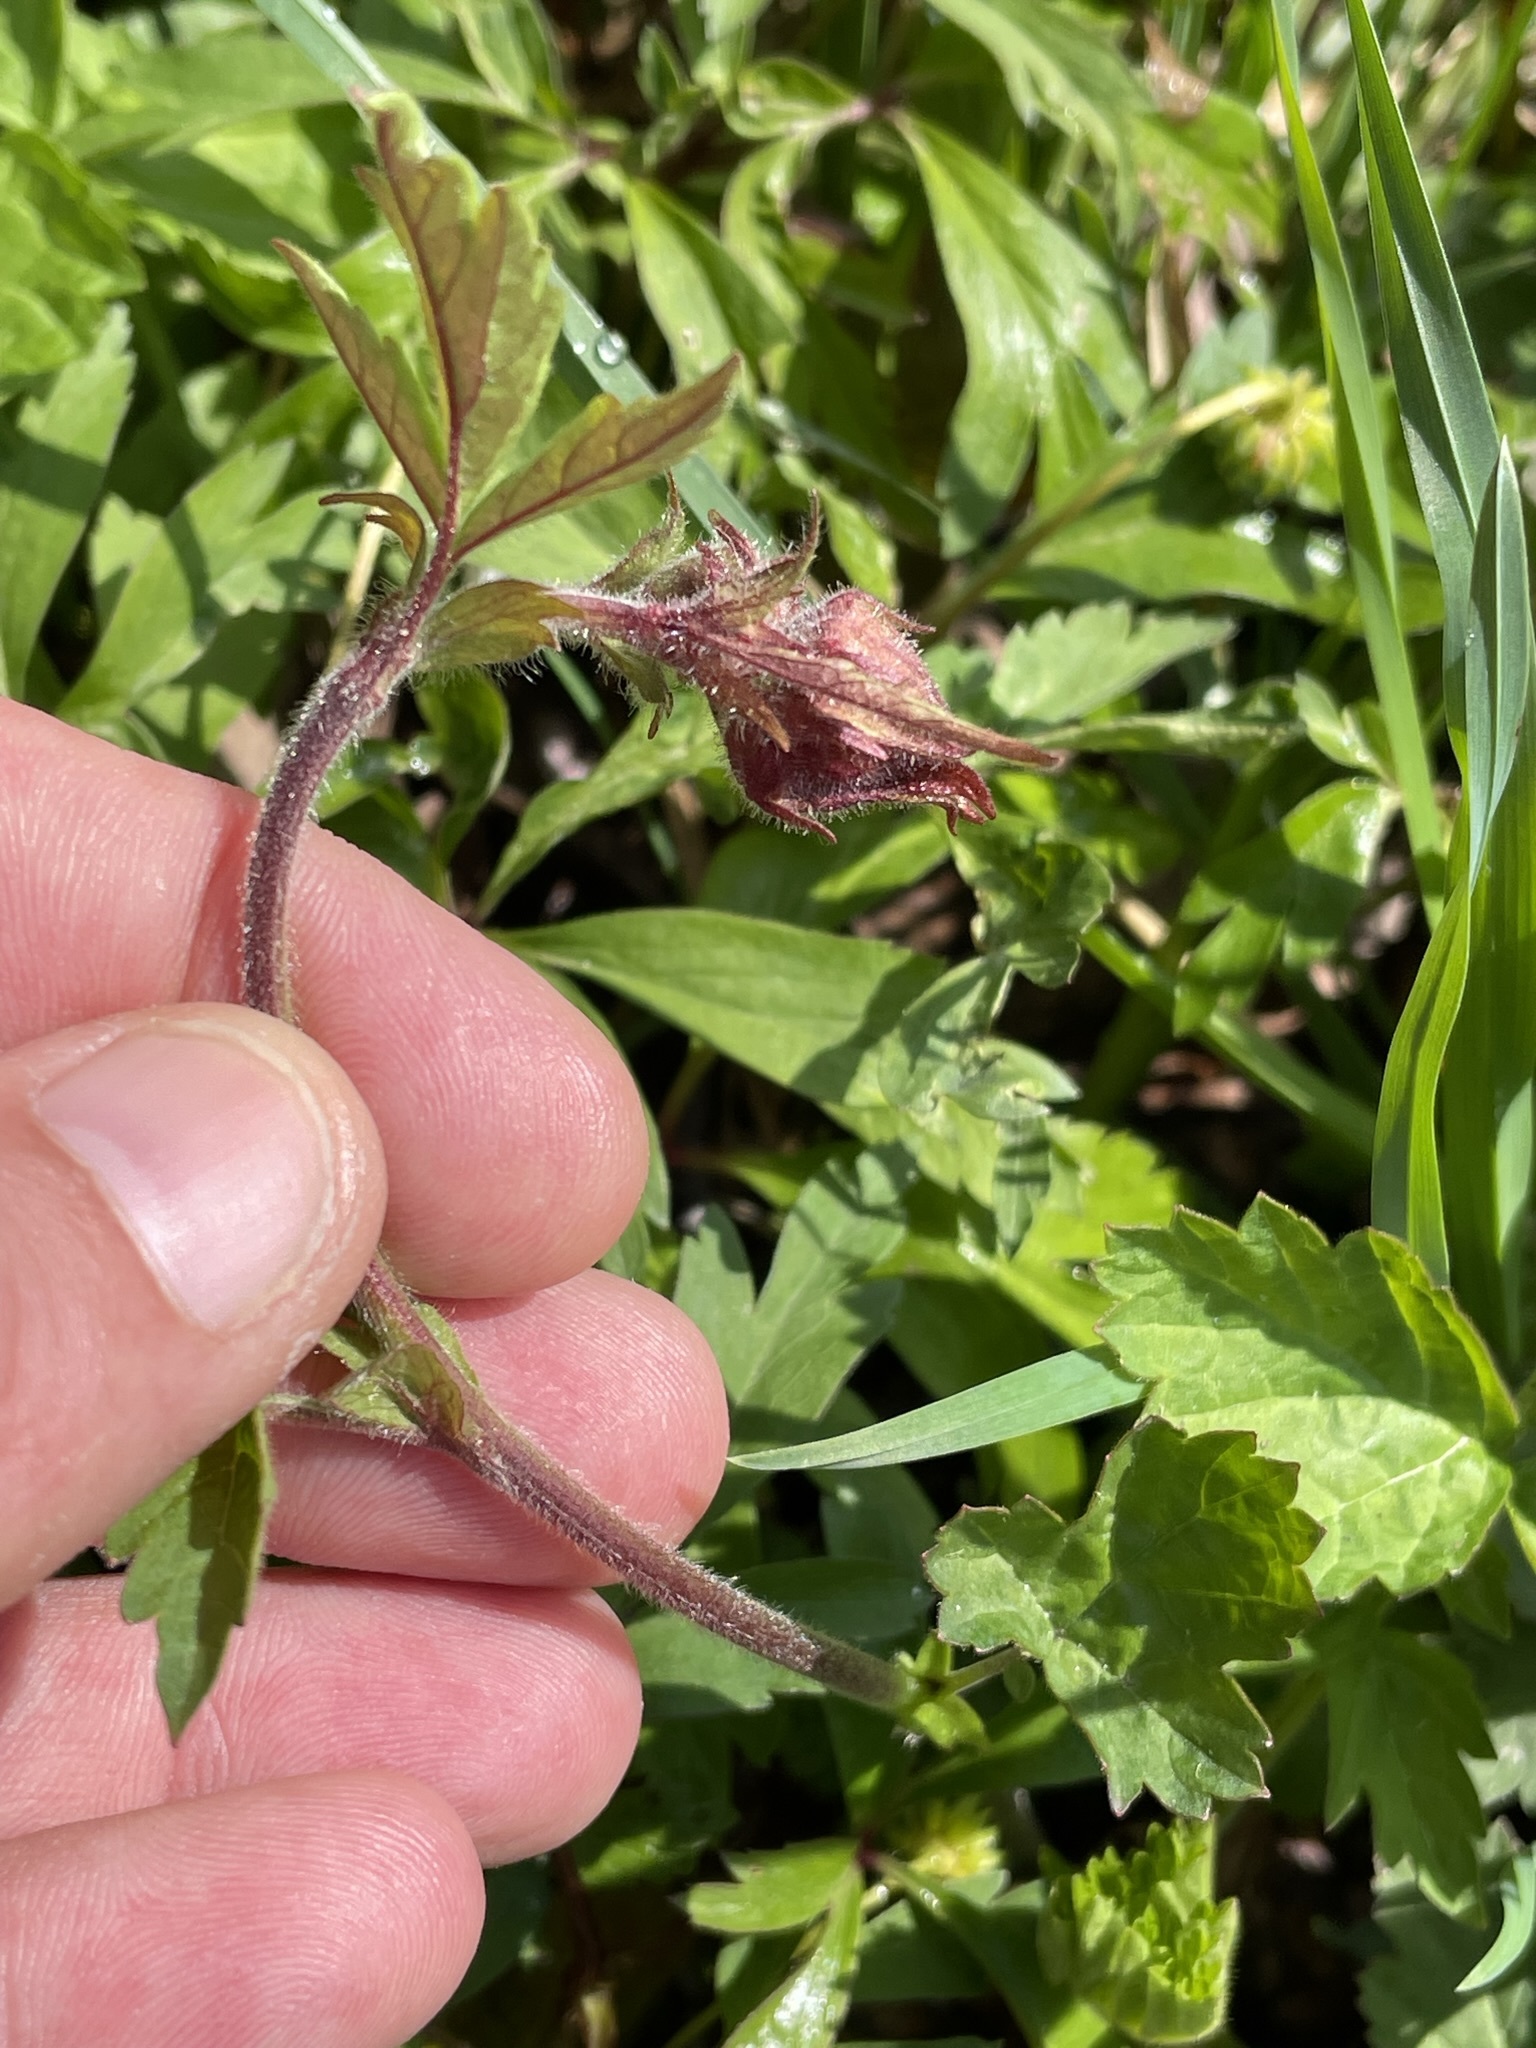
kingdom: Plantae
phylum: Tracheophyta
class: Magnoliopsida
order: Rosales
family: Rosaceae
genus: Geum
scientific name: Geum rivale
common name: Water avens
